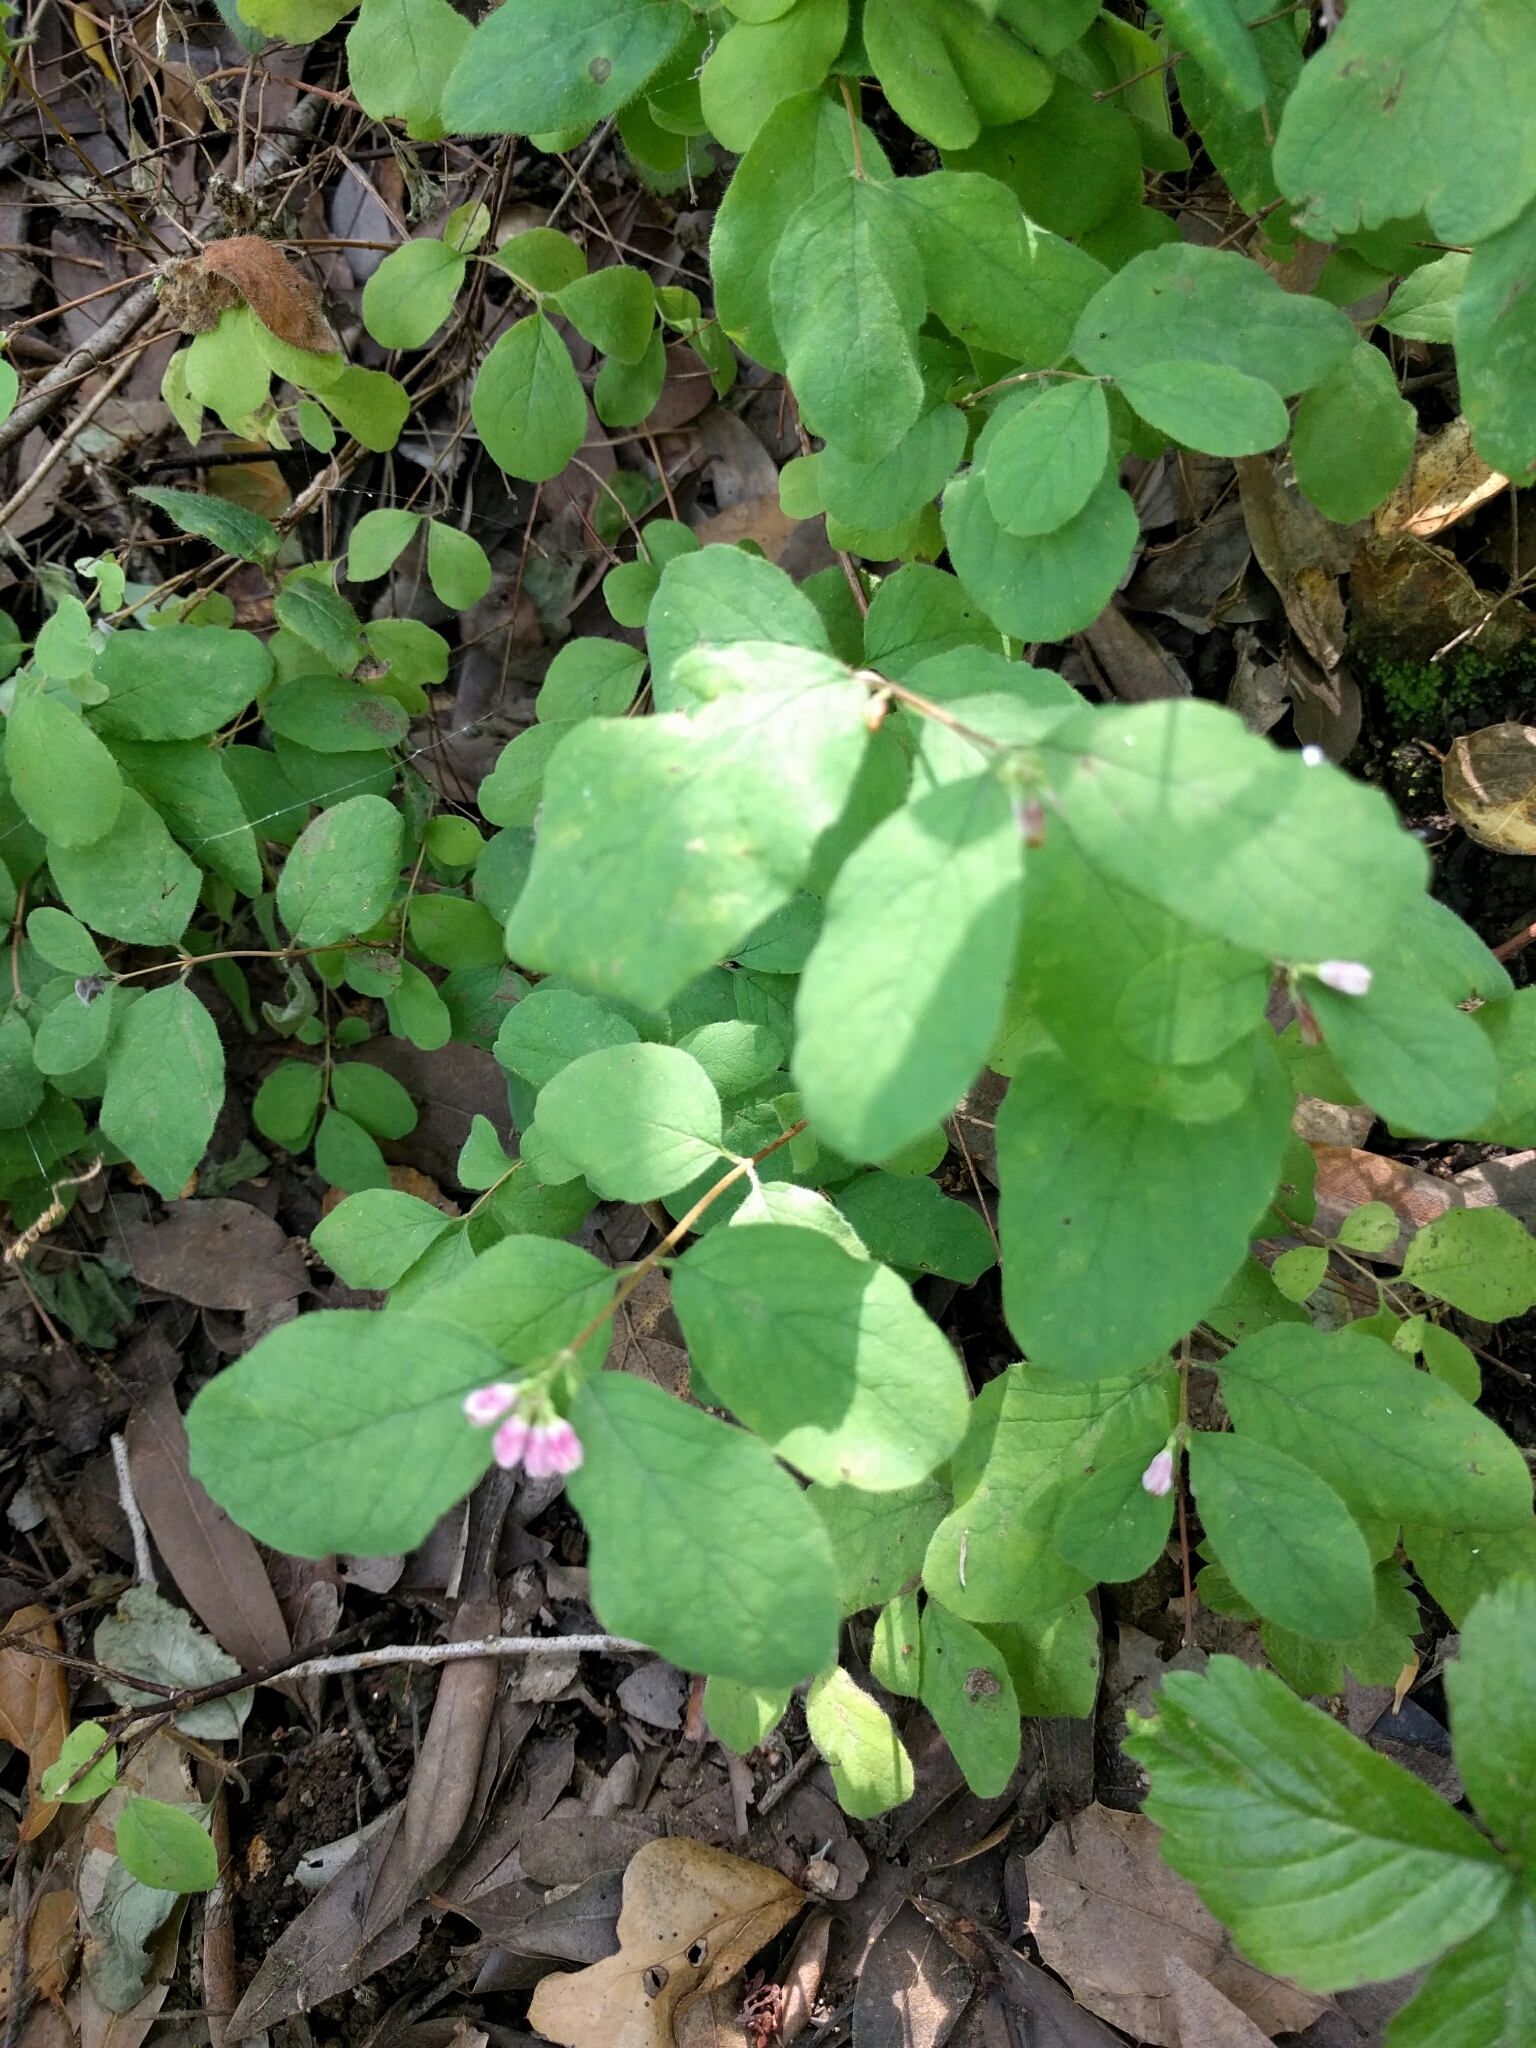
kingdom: Plantae
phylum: Tracheophyta
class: Magnoliopsida
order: Dipsacales
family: Caprifoliaceae
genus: Symphoricarpos
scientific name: Symphoricarpos mollis
